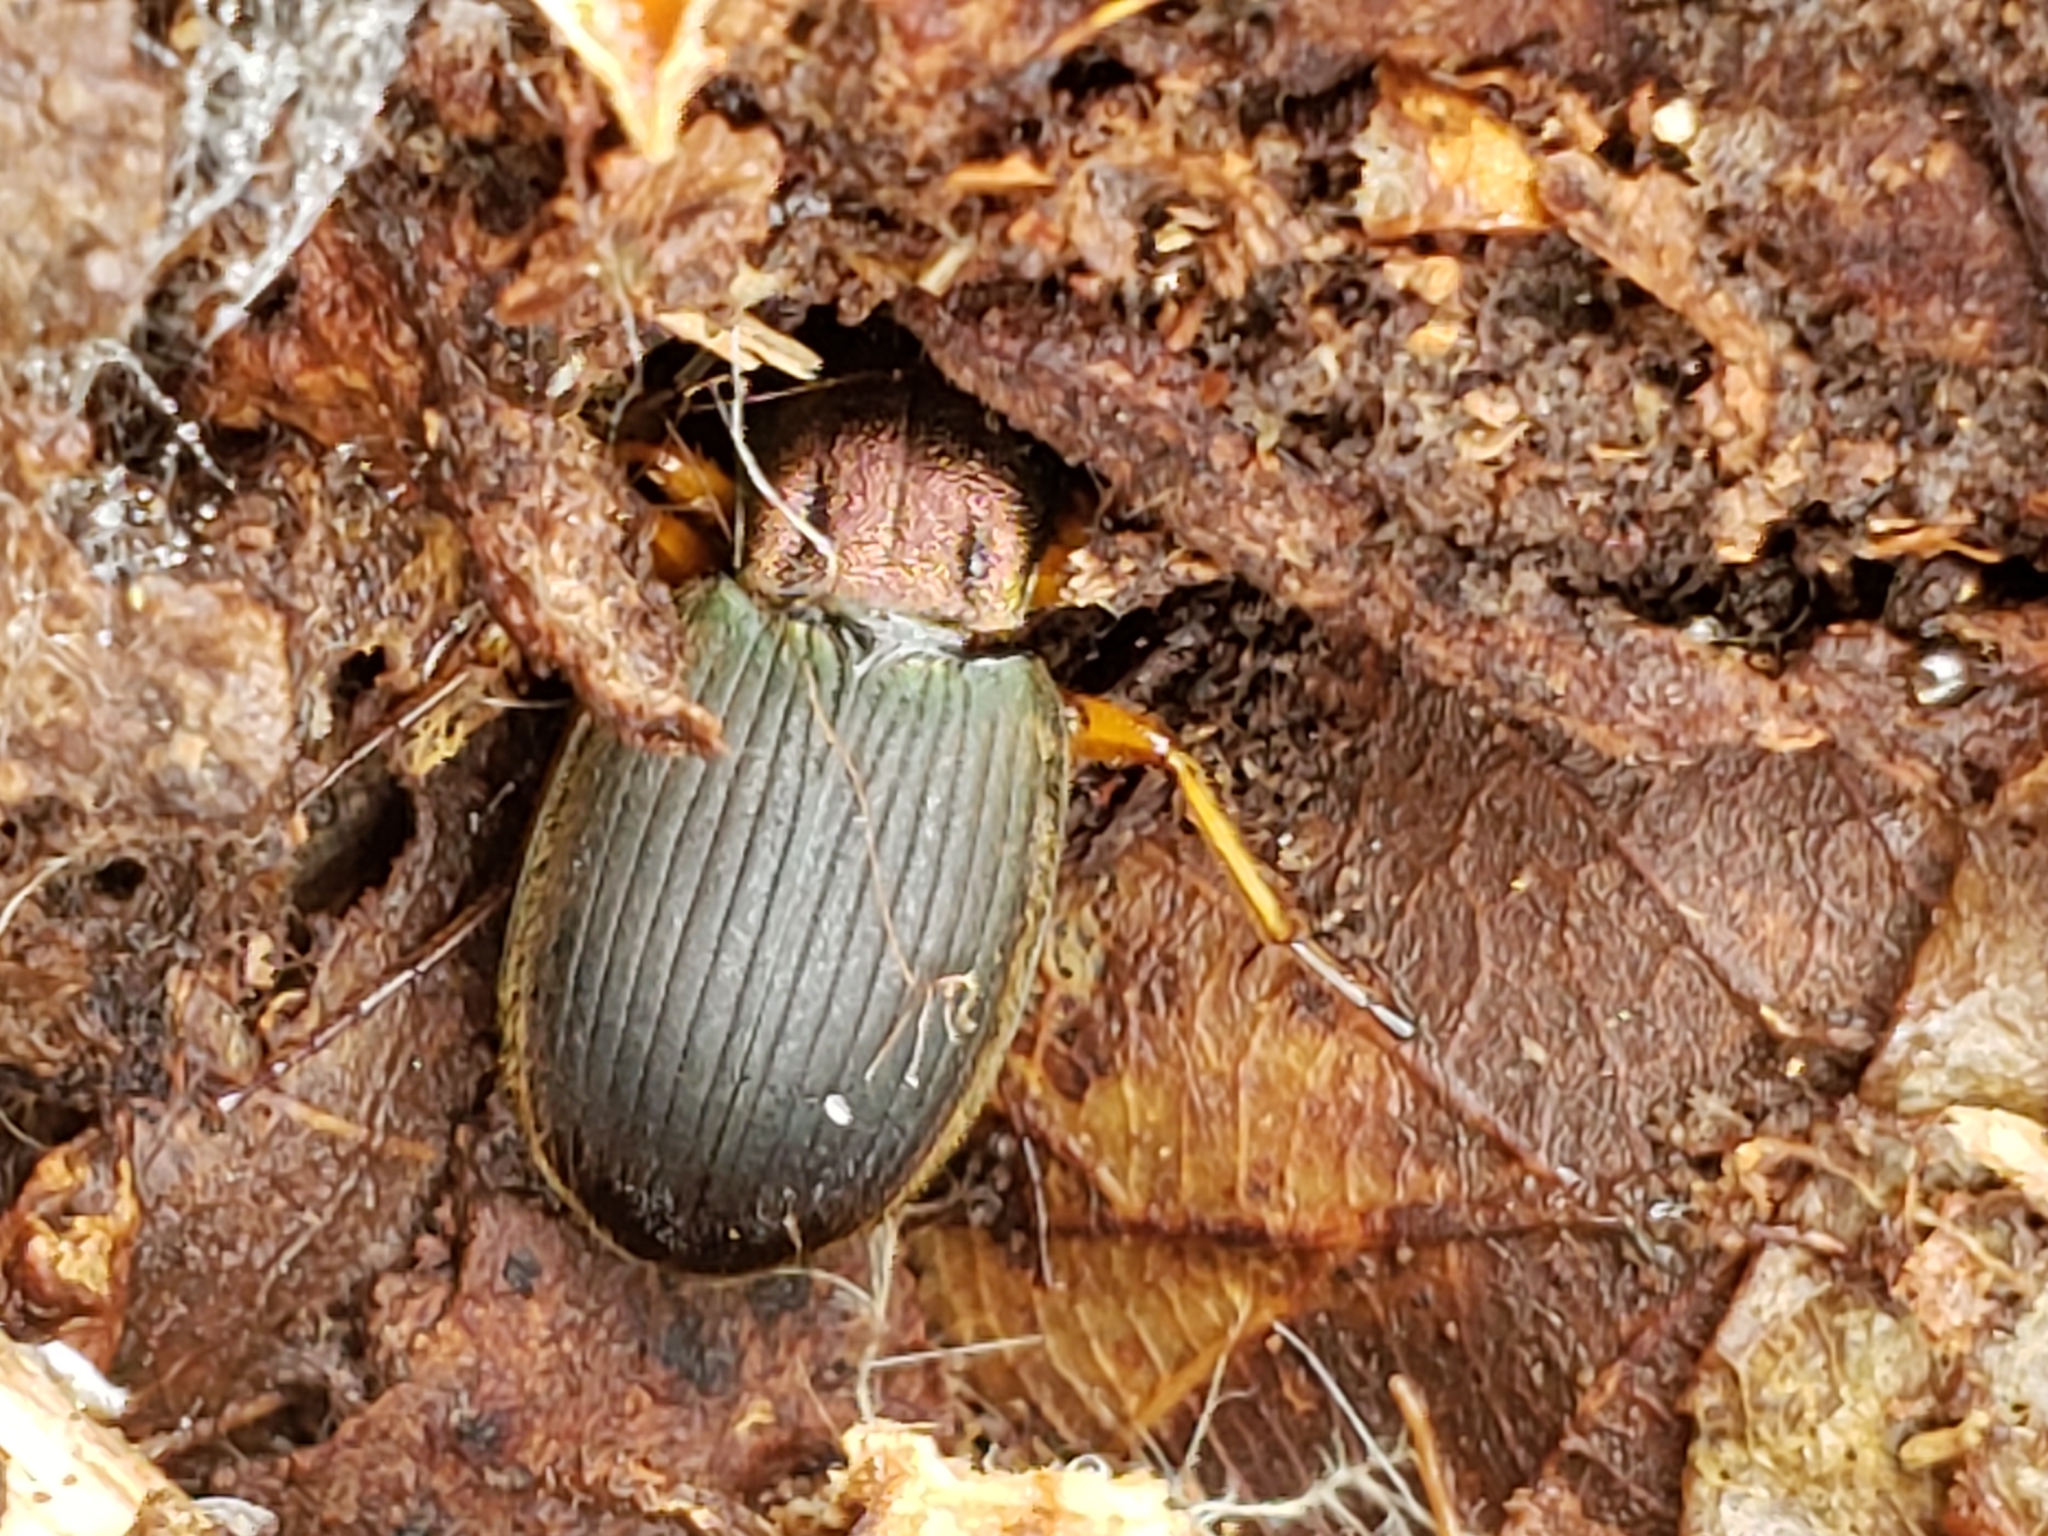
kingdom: Animalia
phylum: Arthropoda
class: Insecta
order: Coleoptera
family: Carabidae
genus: Chlaenius
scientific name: Chlaenius aestivus
